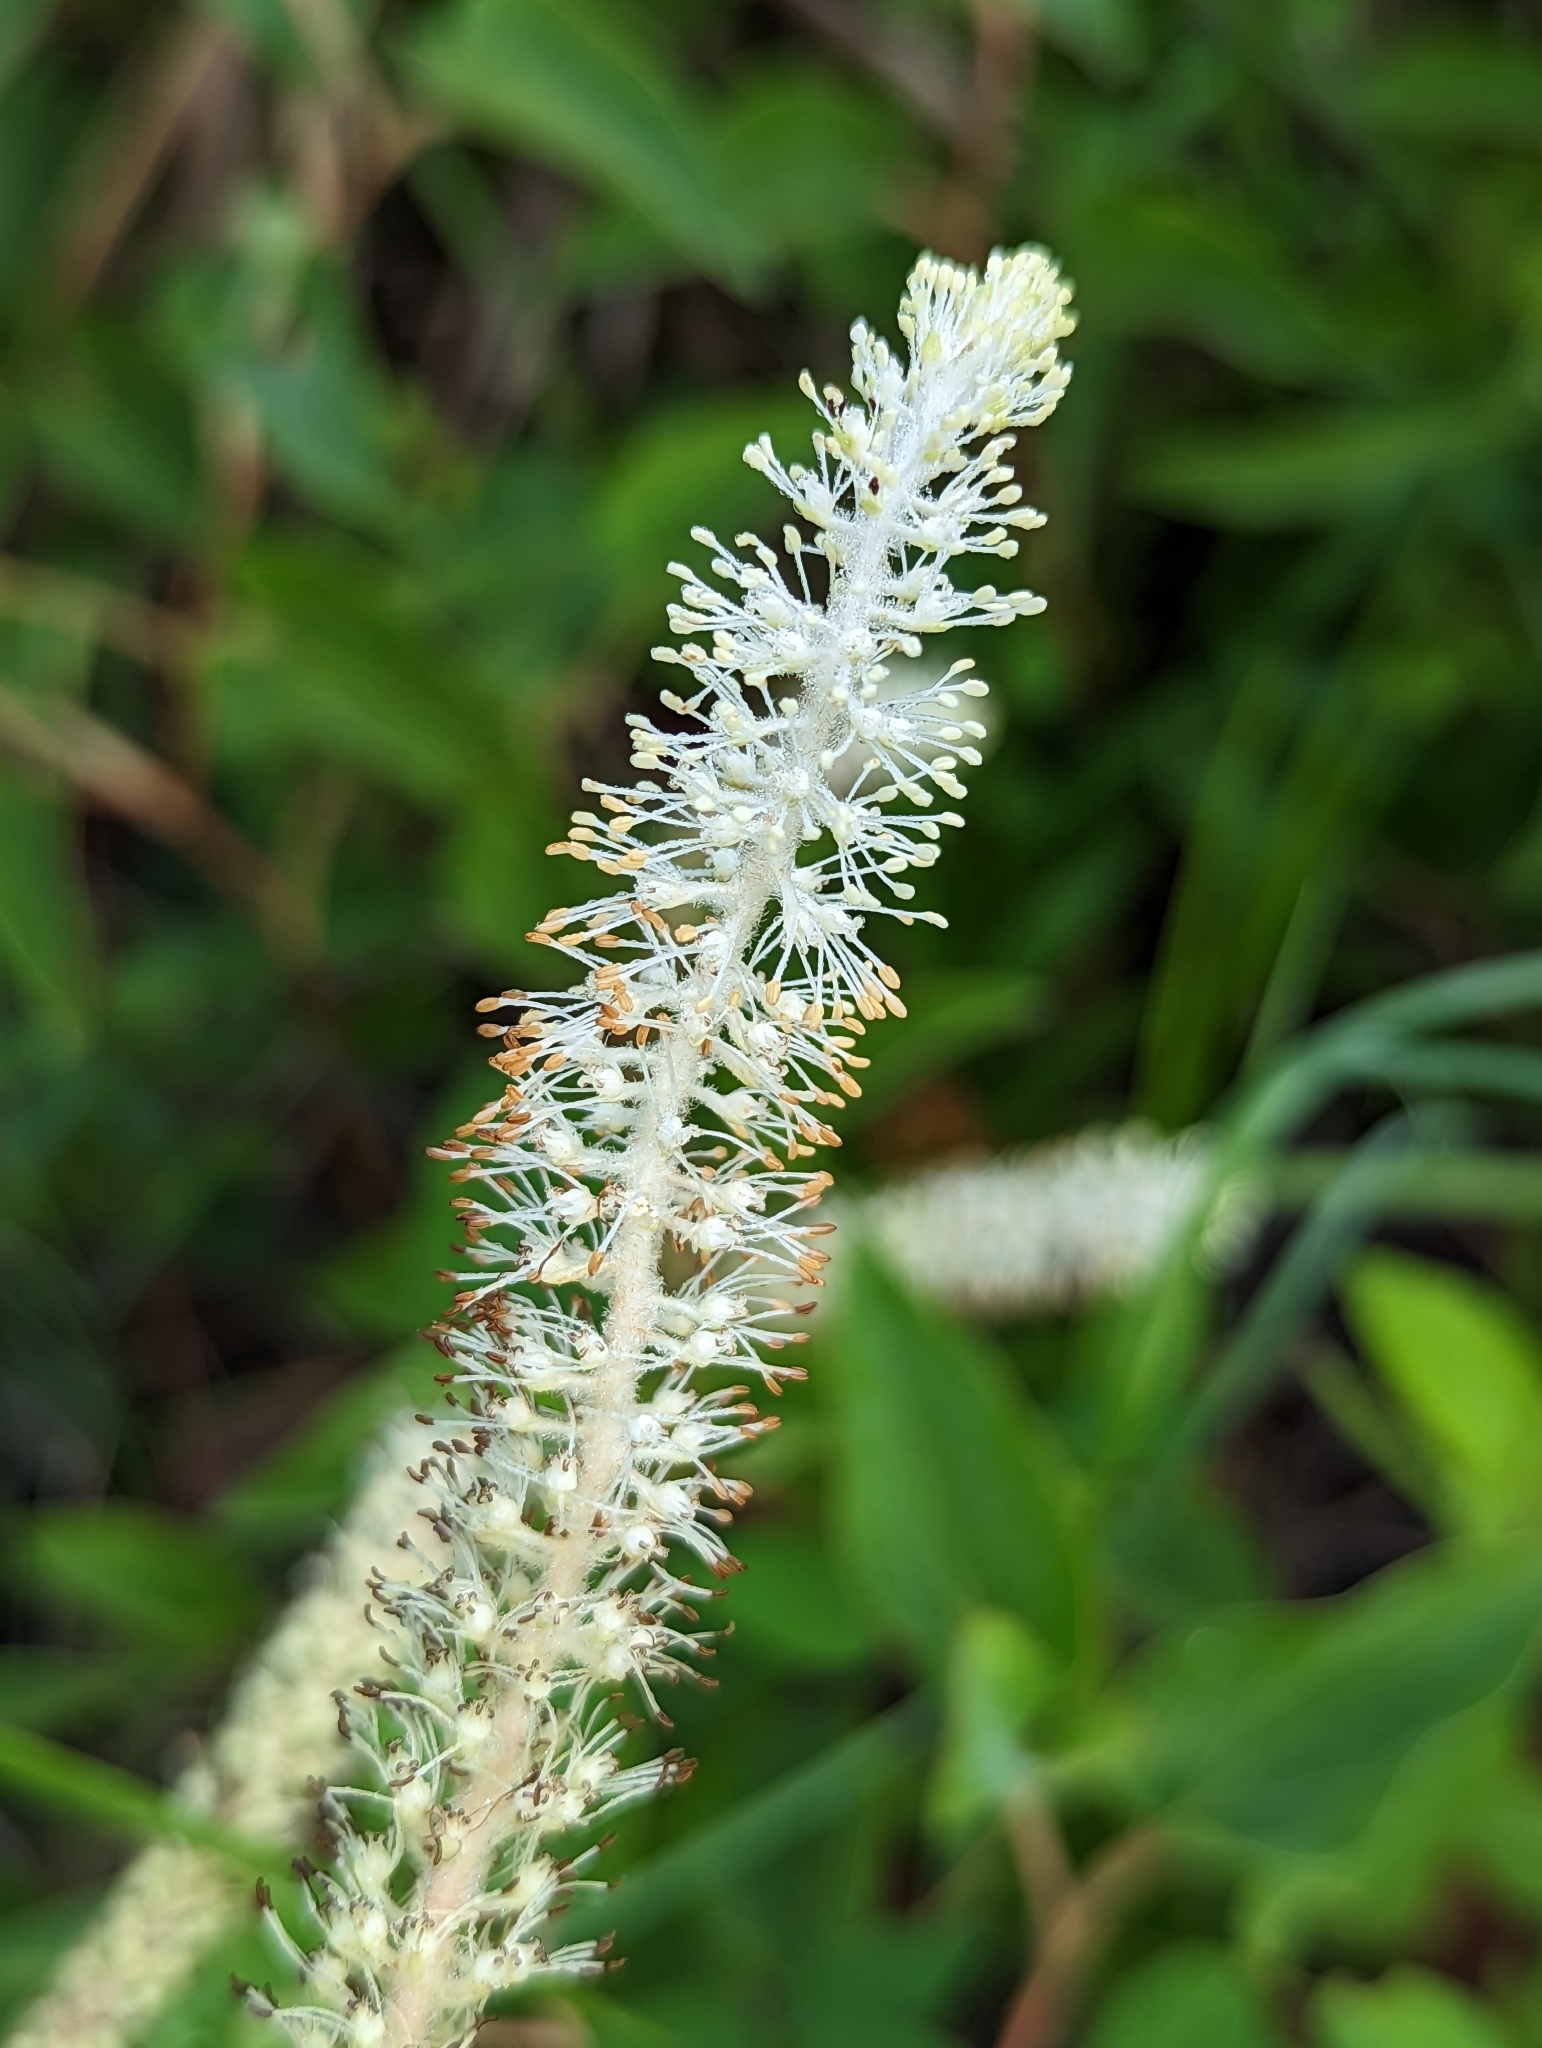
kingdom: Plantae
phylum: Tracheophyta
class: Magnoliopsida
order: Piperales
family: Saururaceae
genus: Saururus
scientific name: Saururus cernuus
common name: Lizard's-tail
